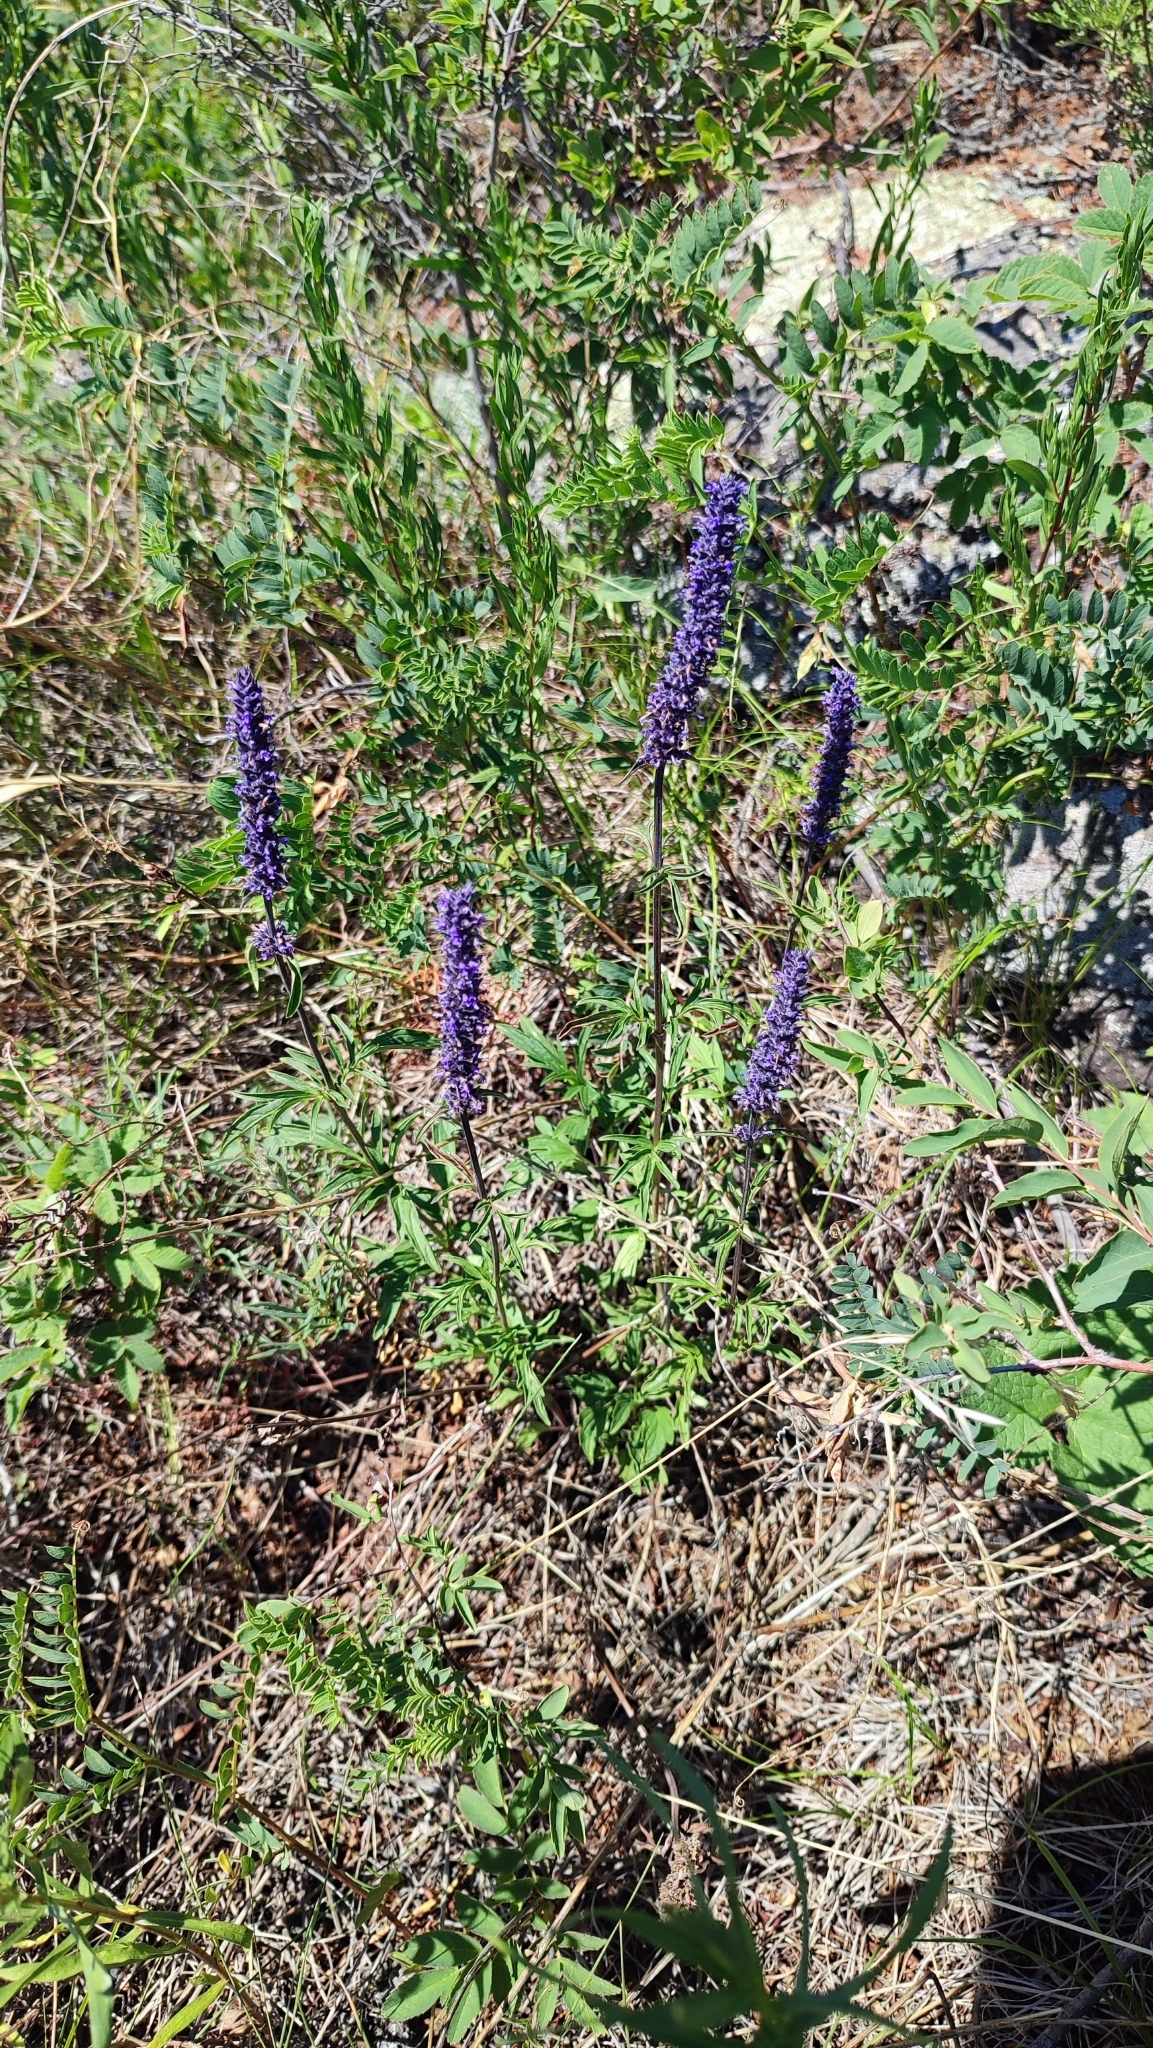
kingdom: Plantae
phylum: Tracheophyta
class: Magnoliopsida
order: Lamiales
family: Lamiaceae
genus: Nepeta
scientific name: Nepeta multifida
